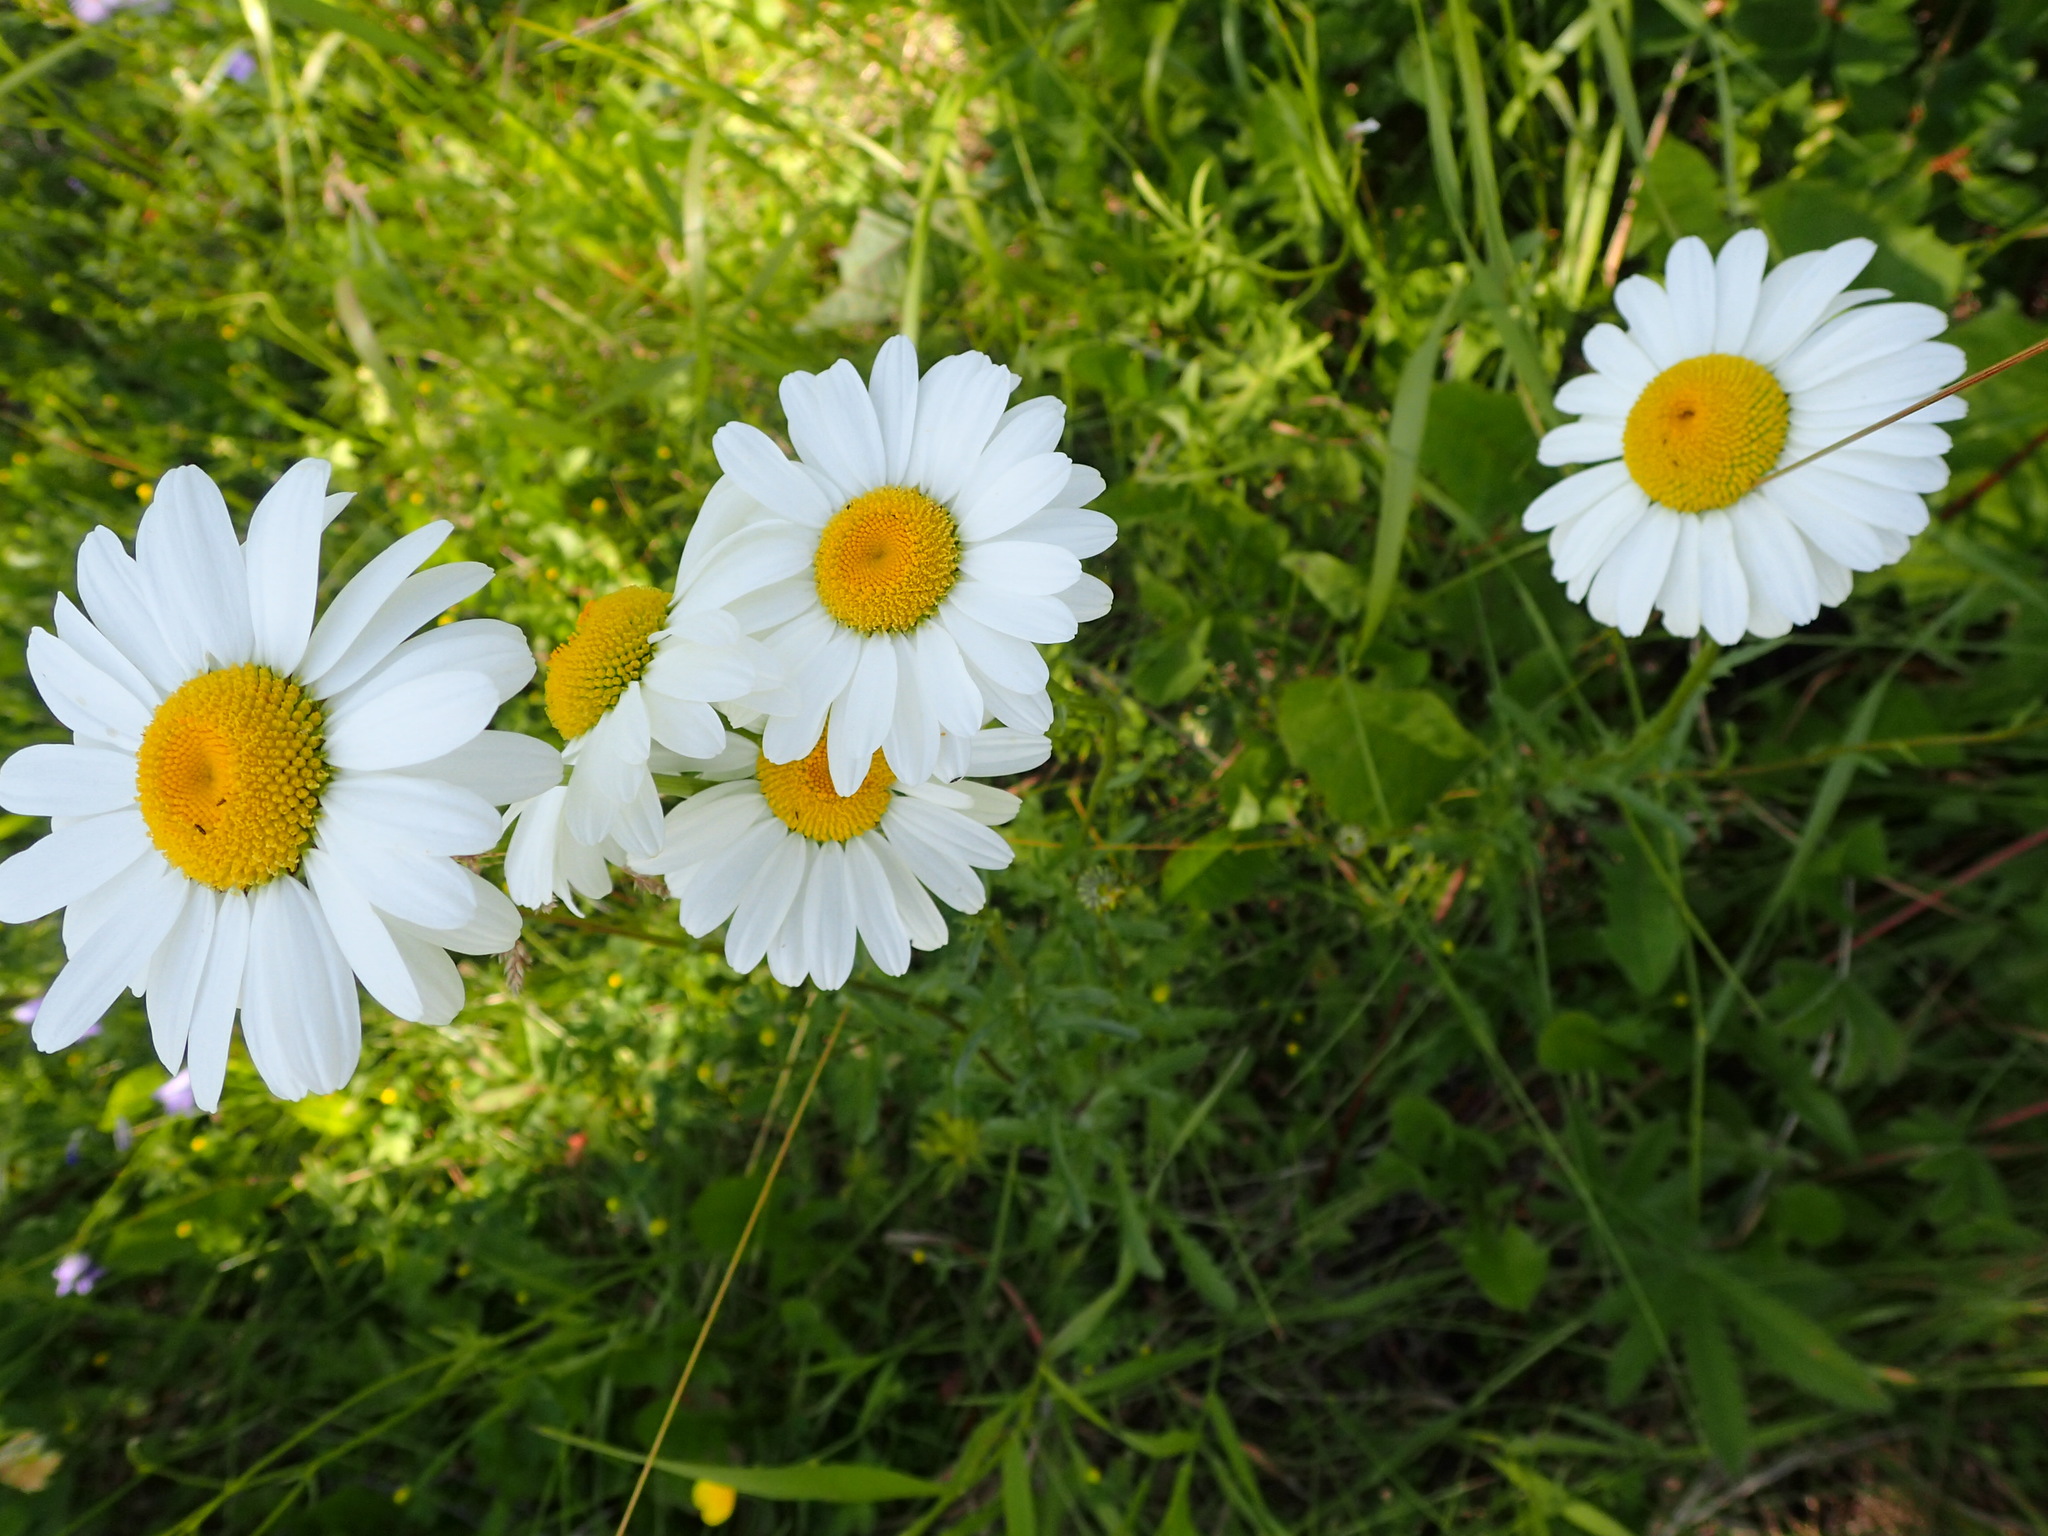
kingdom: Plantae
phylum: Tracheophyta
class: Magnoliopsida
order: Asterales
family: Asteraceae
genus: Leucanthemum
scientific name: Leucanthemum vulgare
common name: Oxeye daisy
